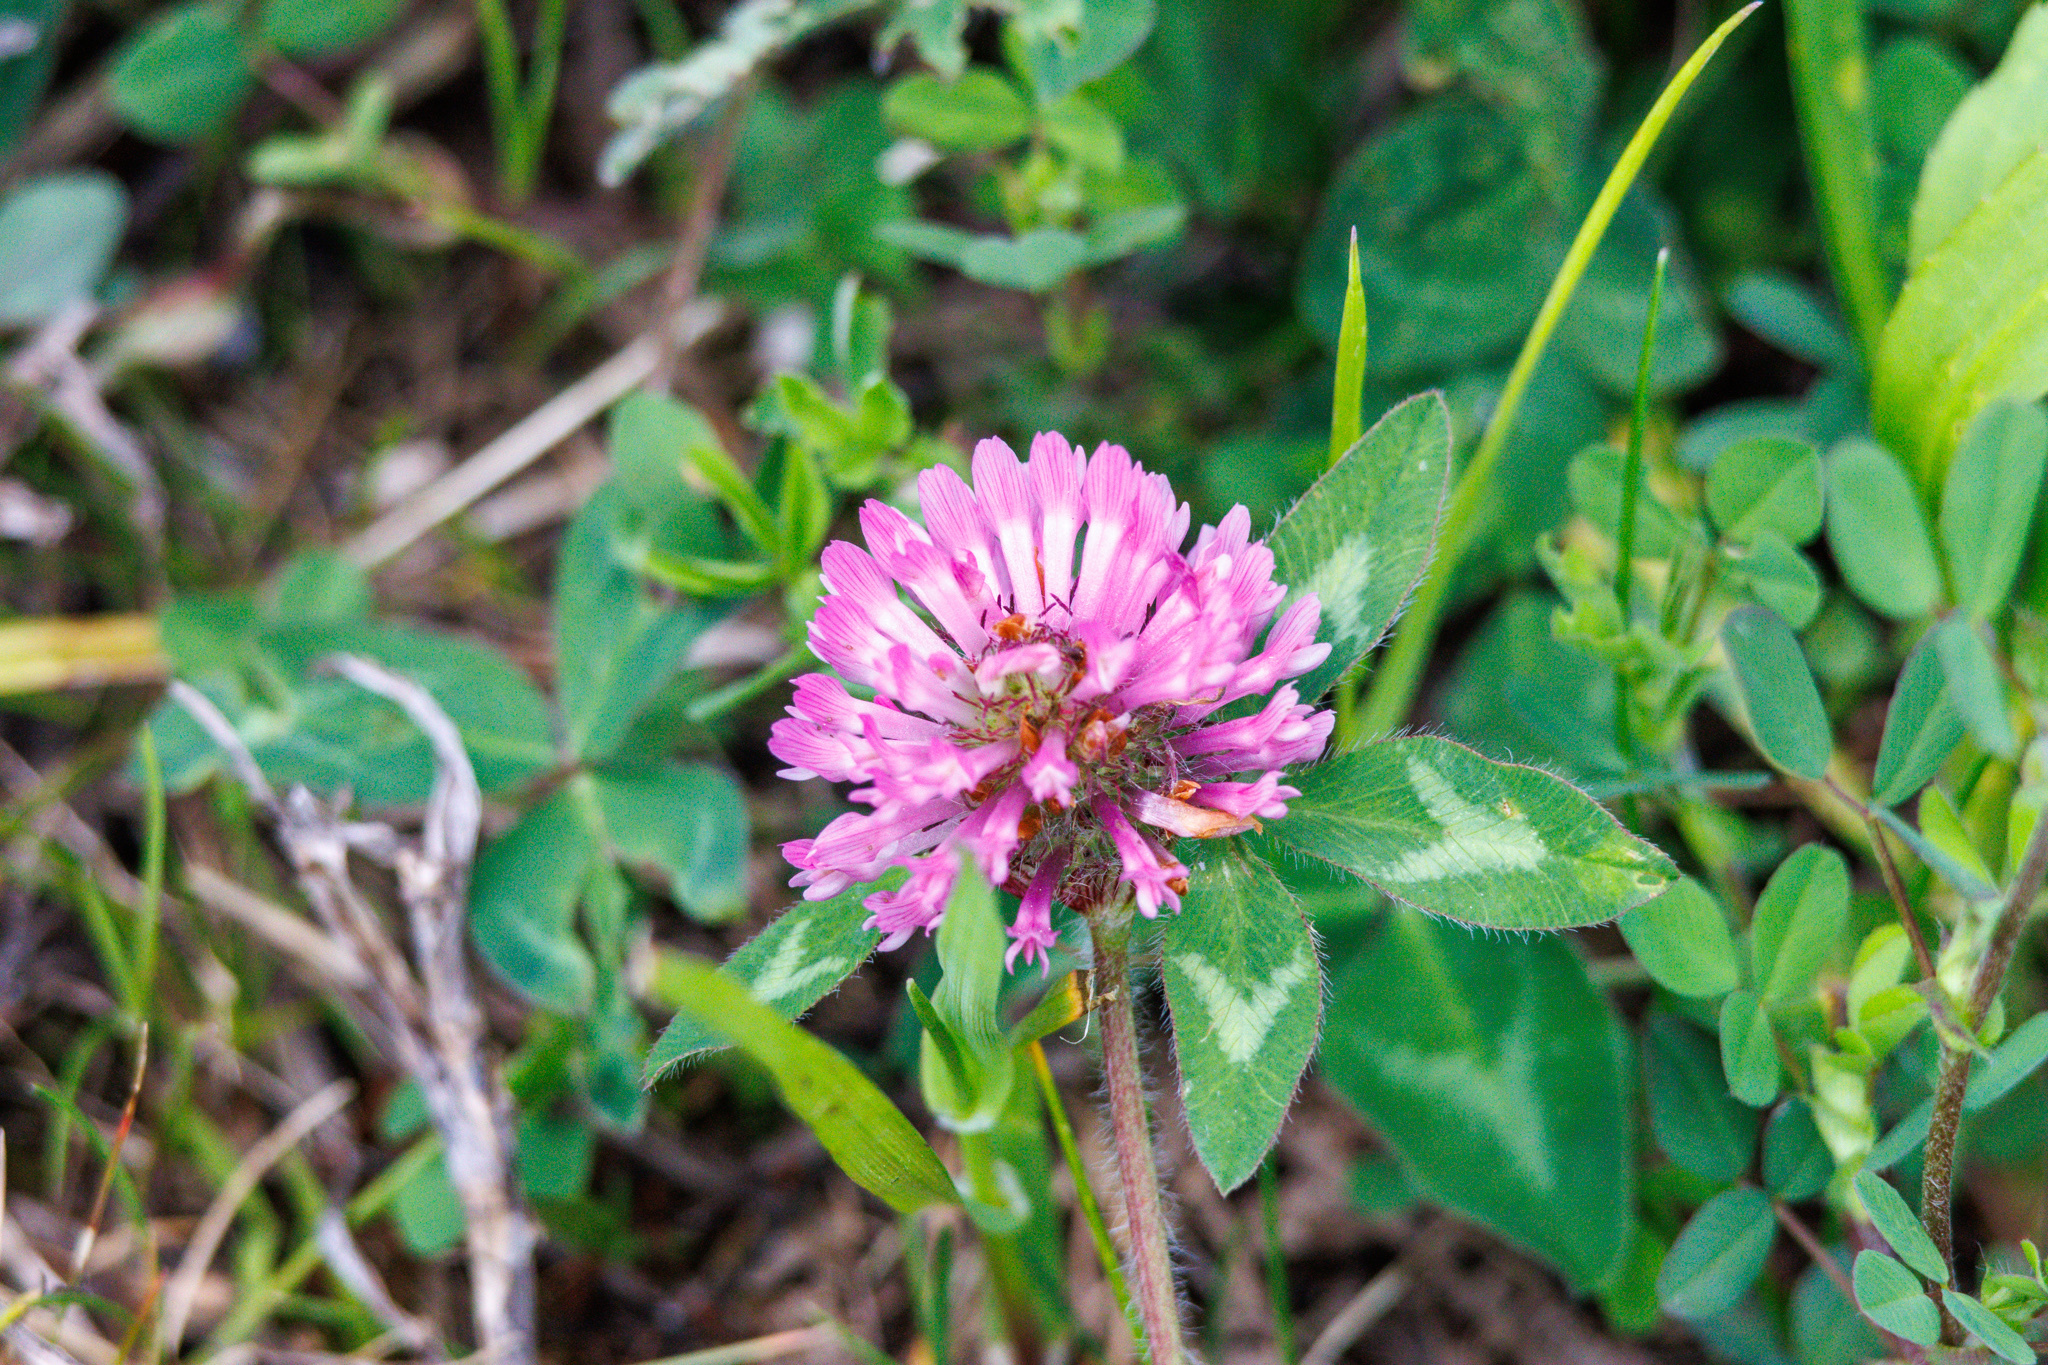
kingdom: Plantae
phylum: Tracheophyta
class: Magnoliopsida
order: Fabales
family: Fabaceae
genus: Trifolium
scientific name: Trifolium pratense
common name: Red clover
